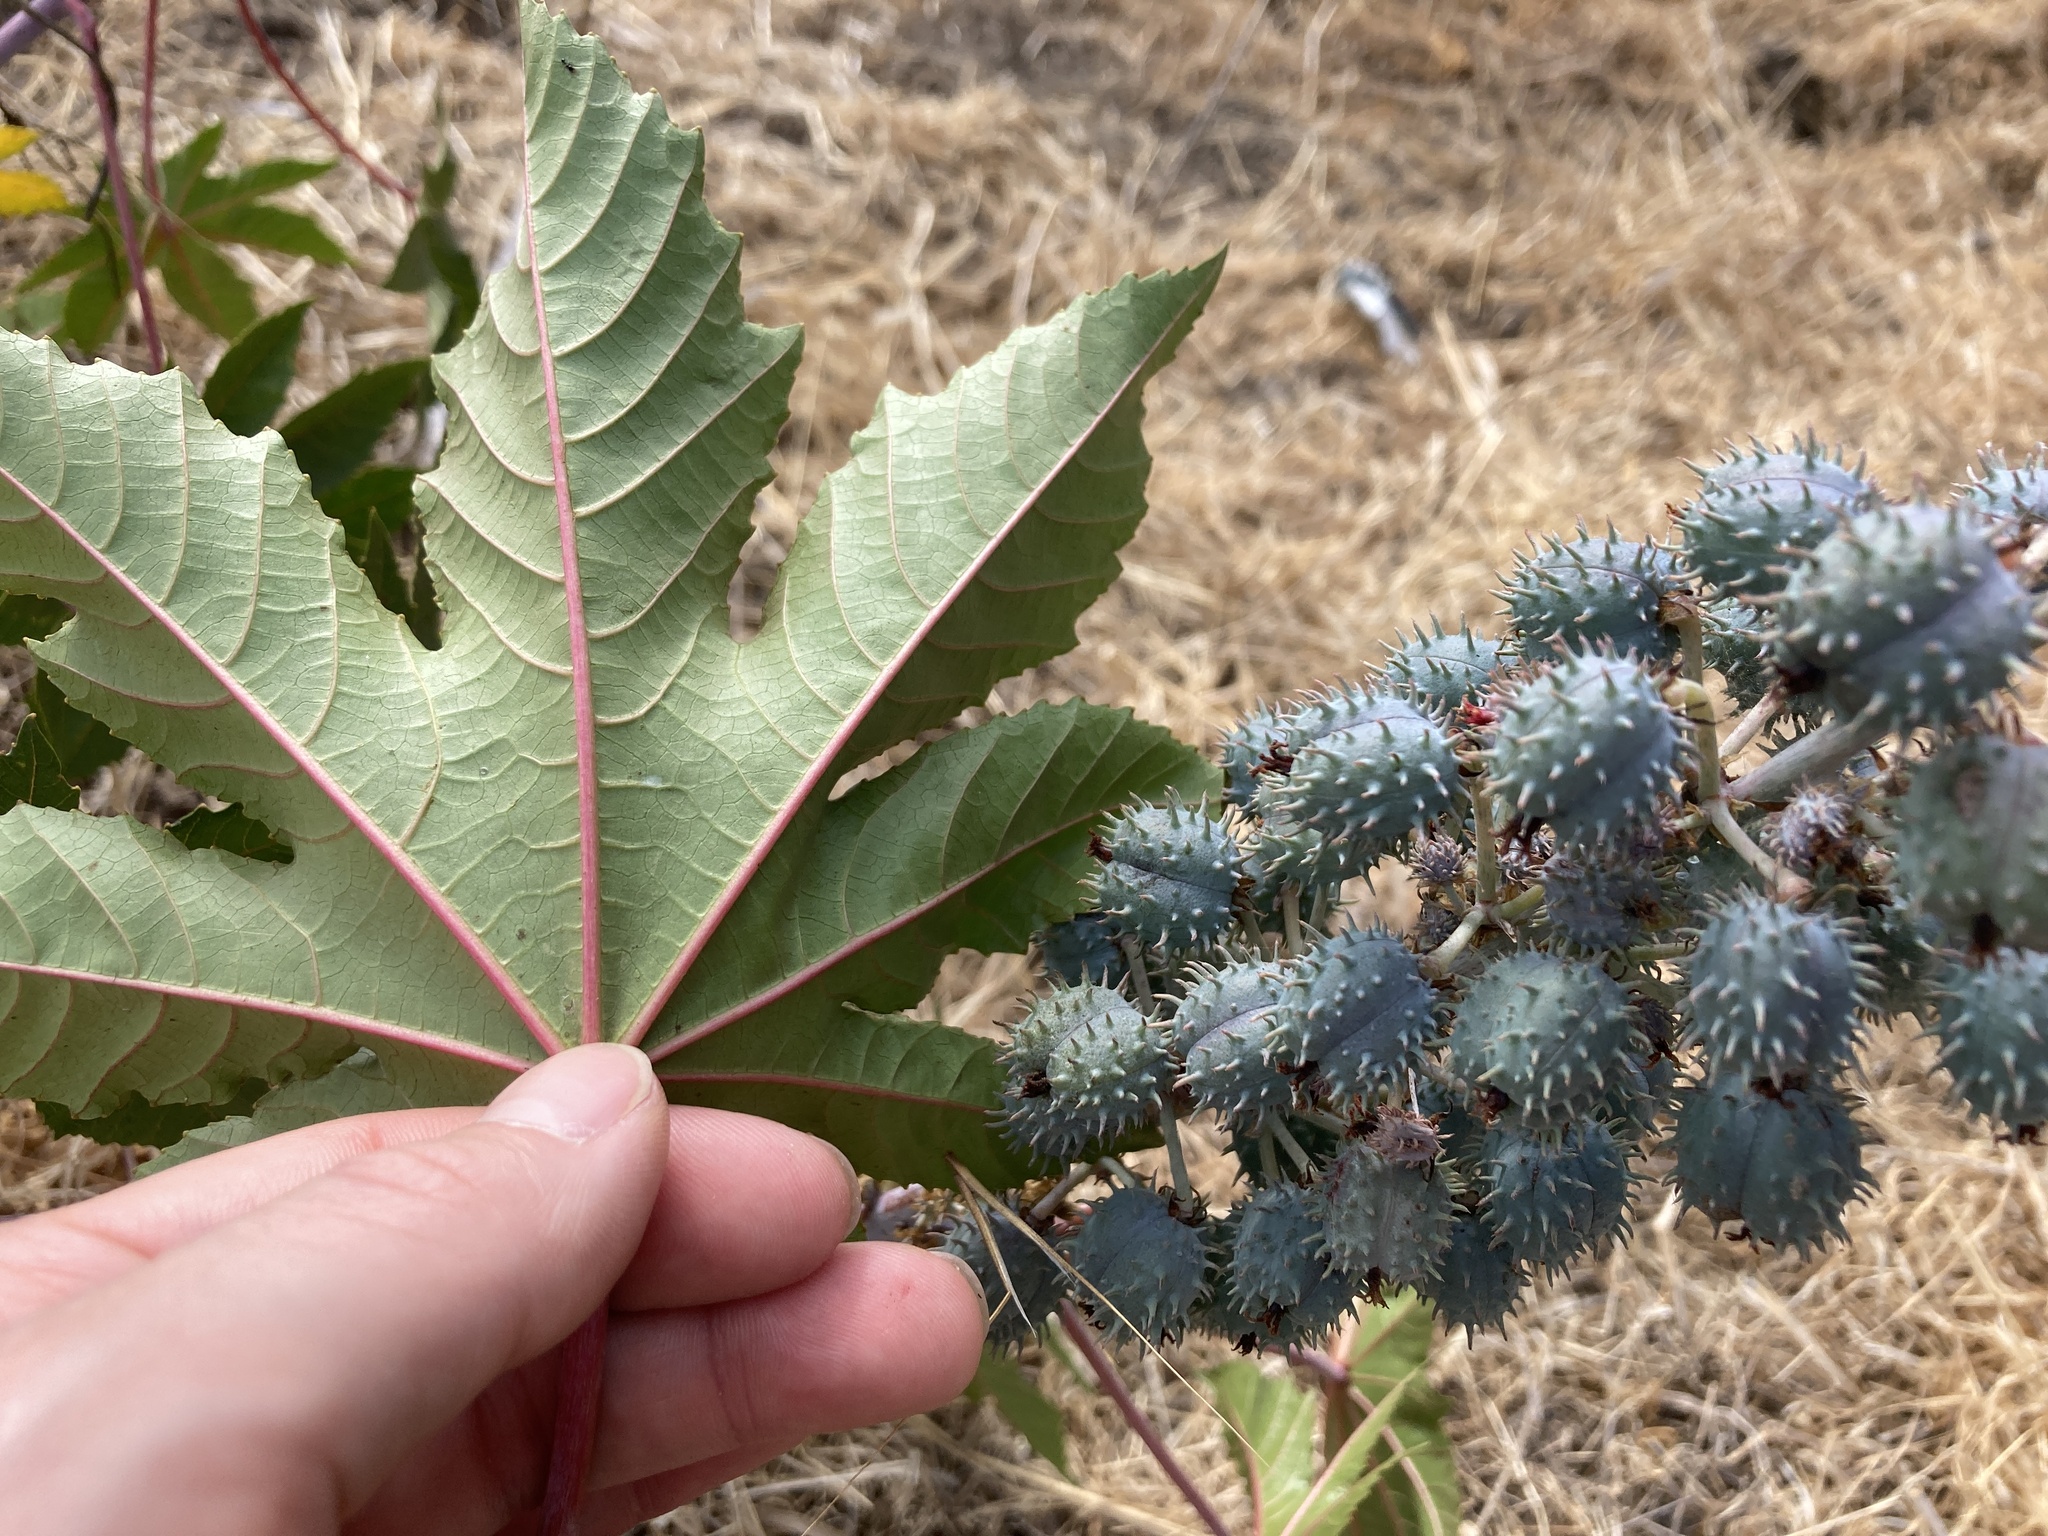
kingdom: Plantae
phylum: Tracheophyta
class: Magnoliopsida
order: Malpighiales
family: Euphorbiaceae
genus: Ricinus
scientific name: Ricinus communis
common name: Castor-oil-plant
